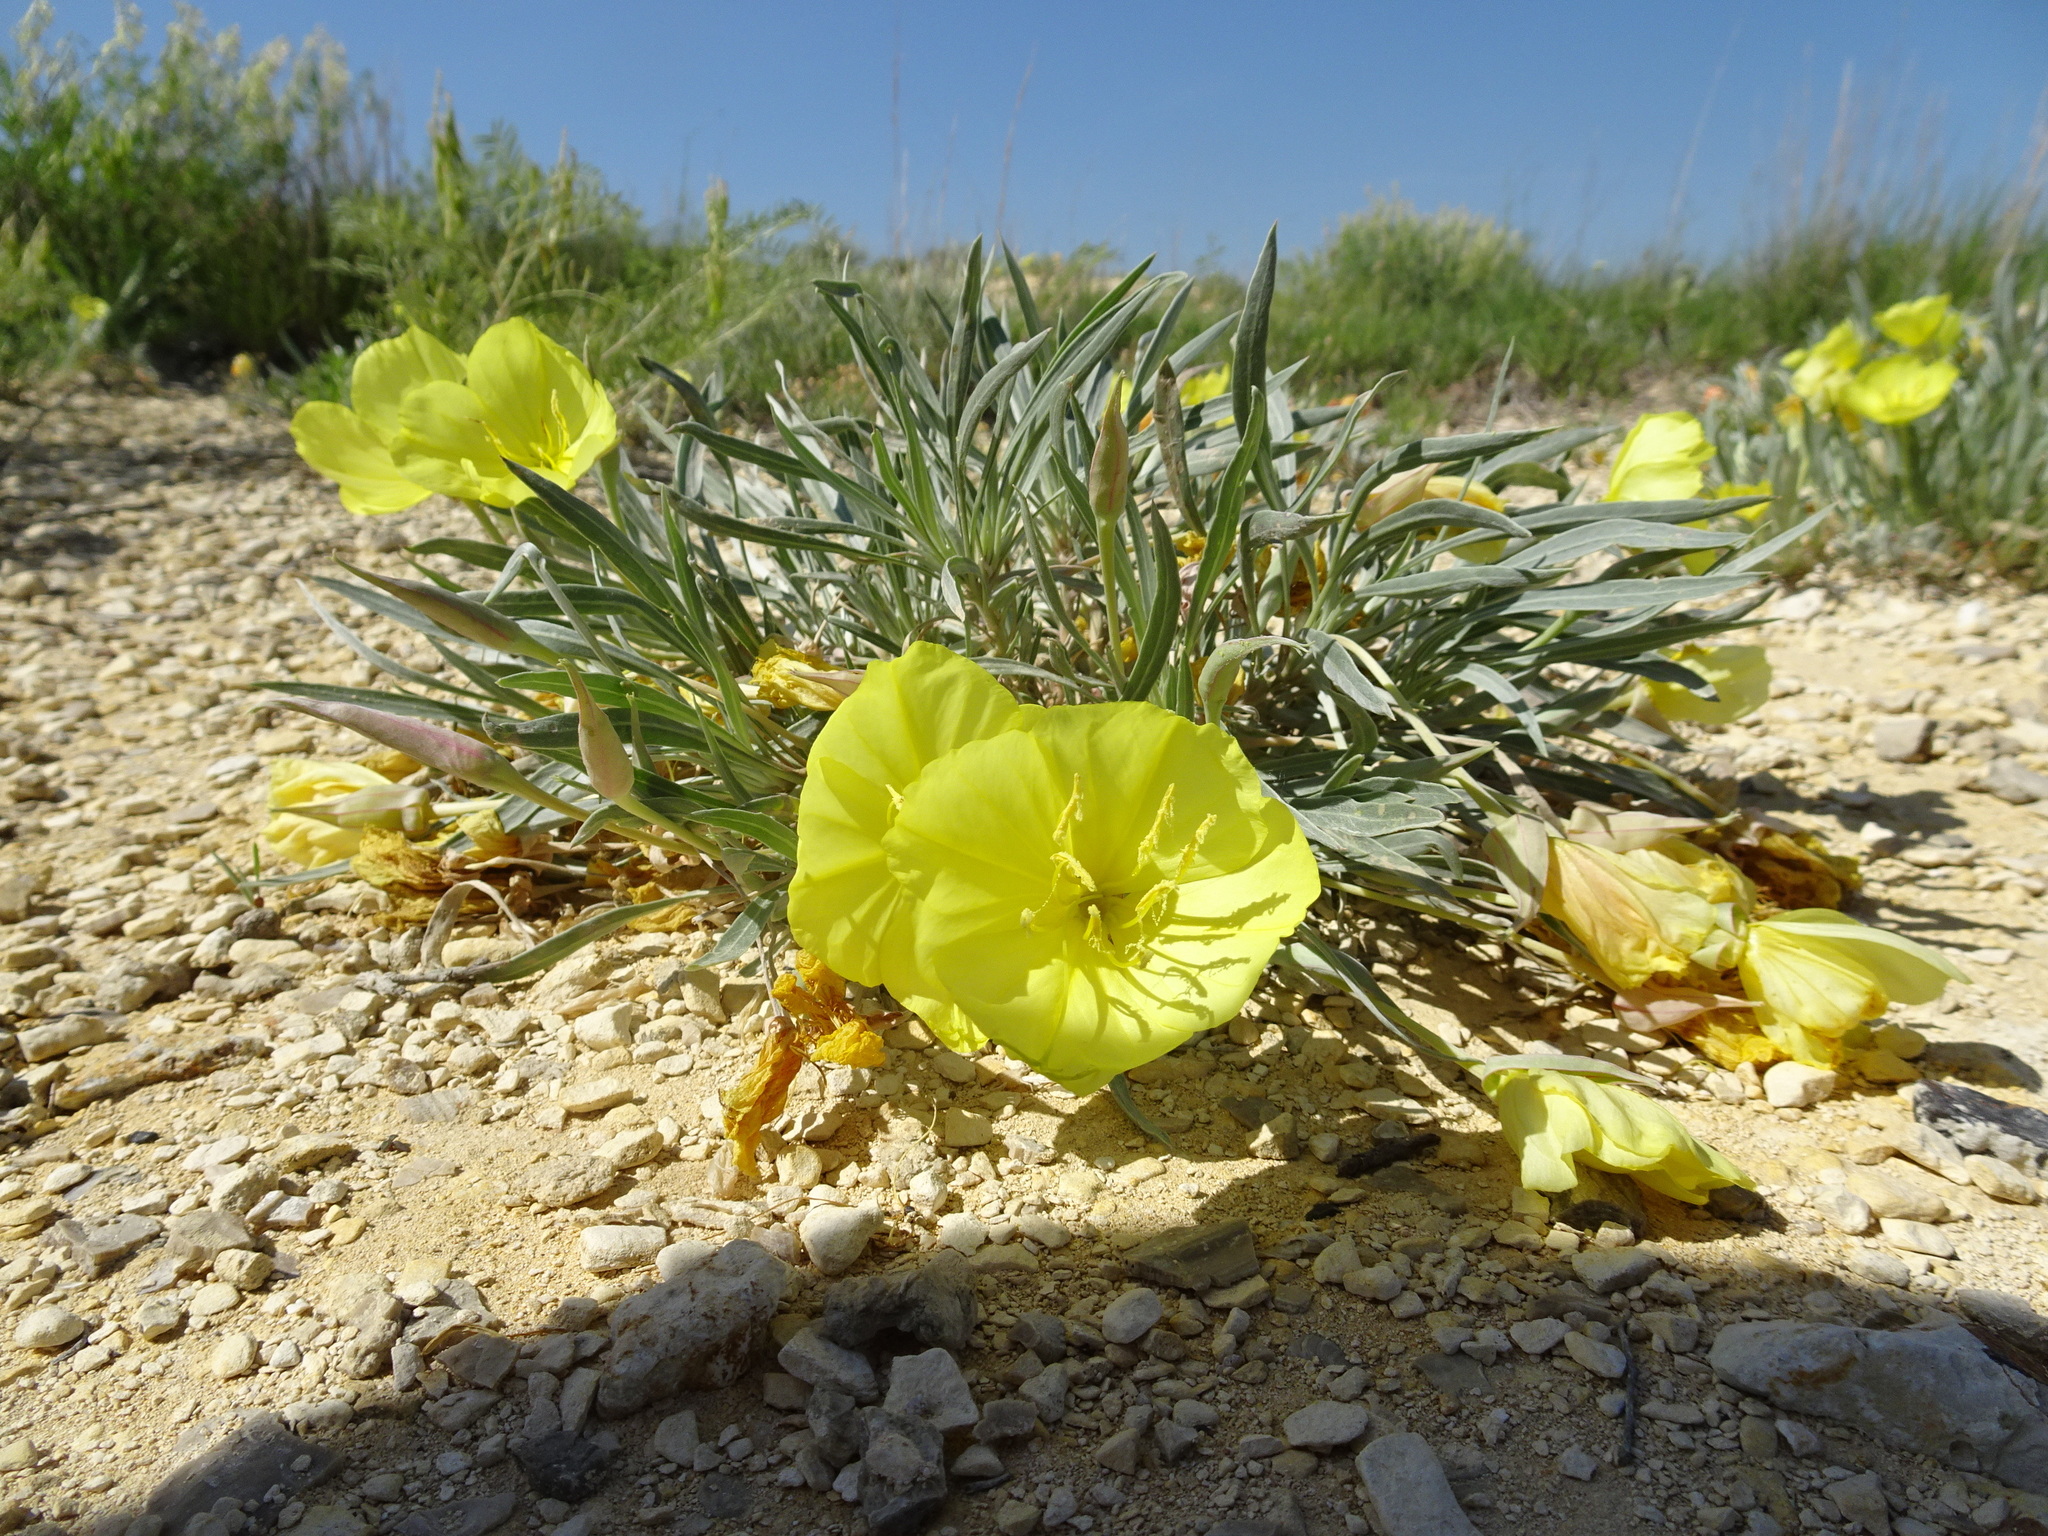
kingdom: Plantae
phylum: Tracheophyta
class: Magnoliopsida
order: Myrtales
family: Onagraceae
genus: Oenothera
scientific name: Oenothera macrocarpa
